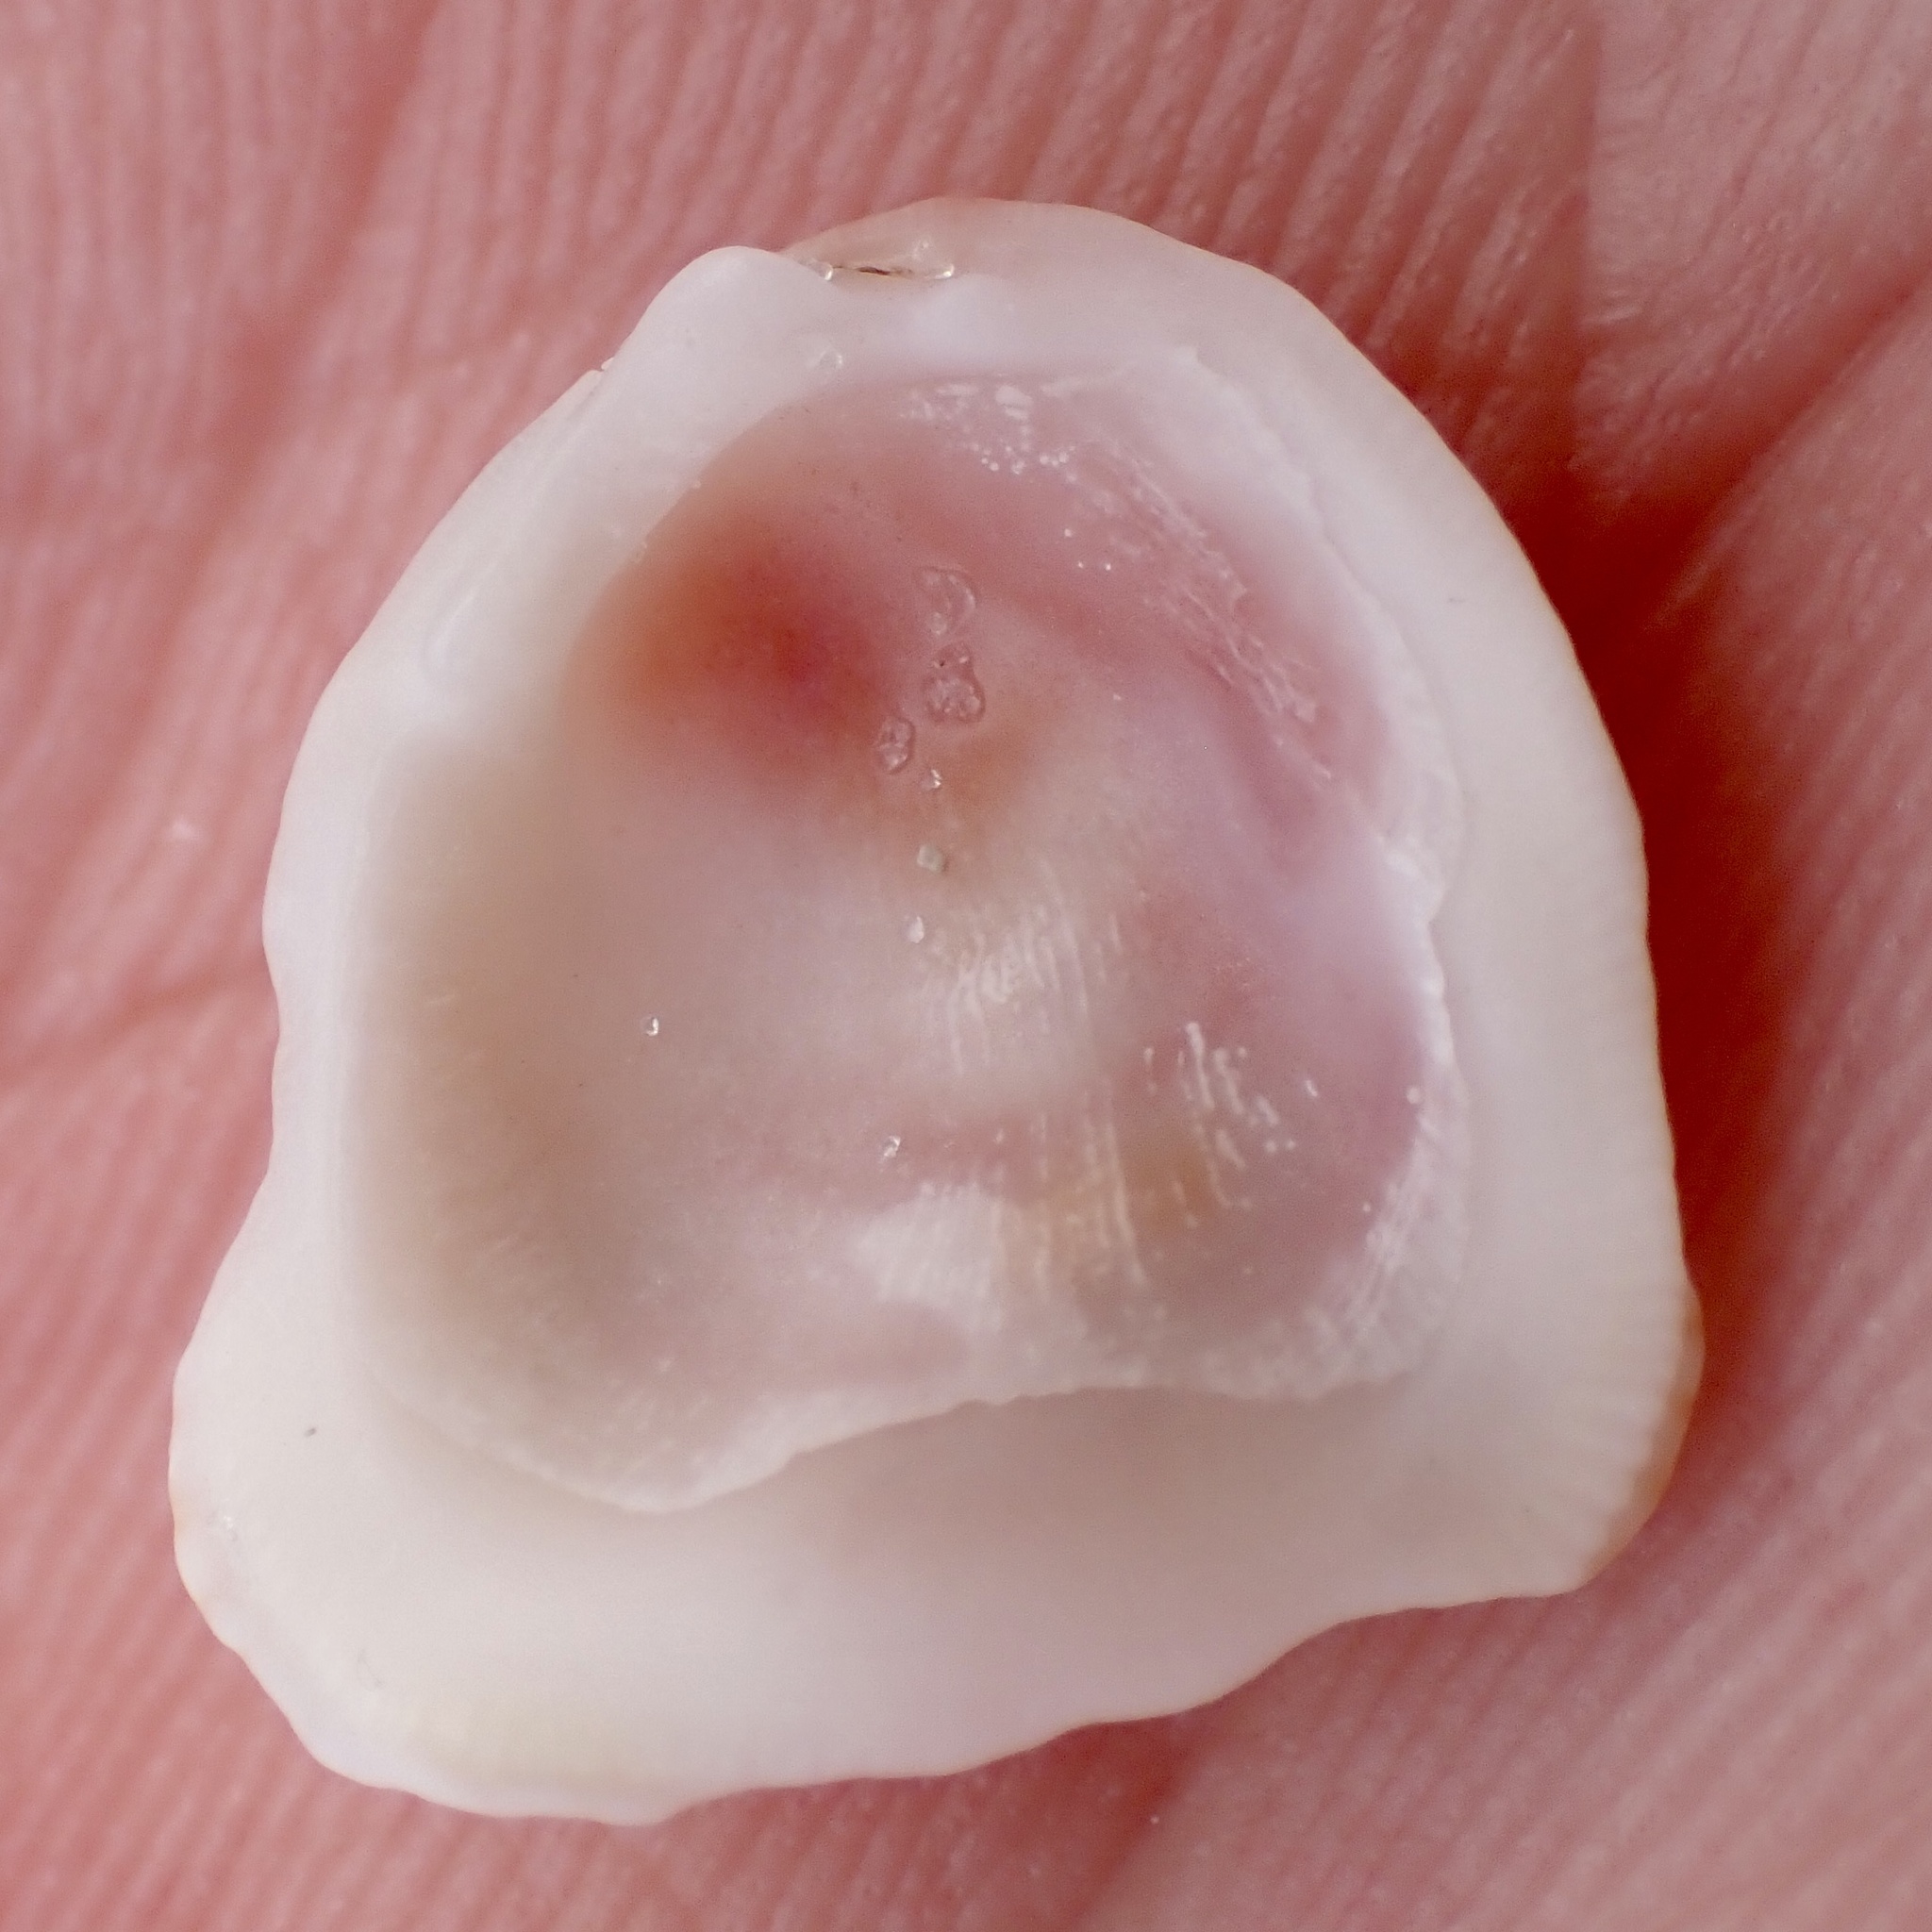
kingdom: Animalia
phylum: Mollusca
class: Bivalvia
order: Venerida
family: Chamidae
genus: Chama
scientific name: Chama congregata
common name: Corrugate jewelbox
